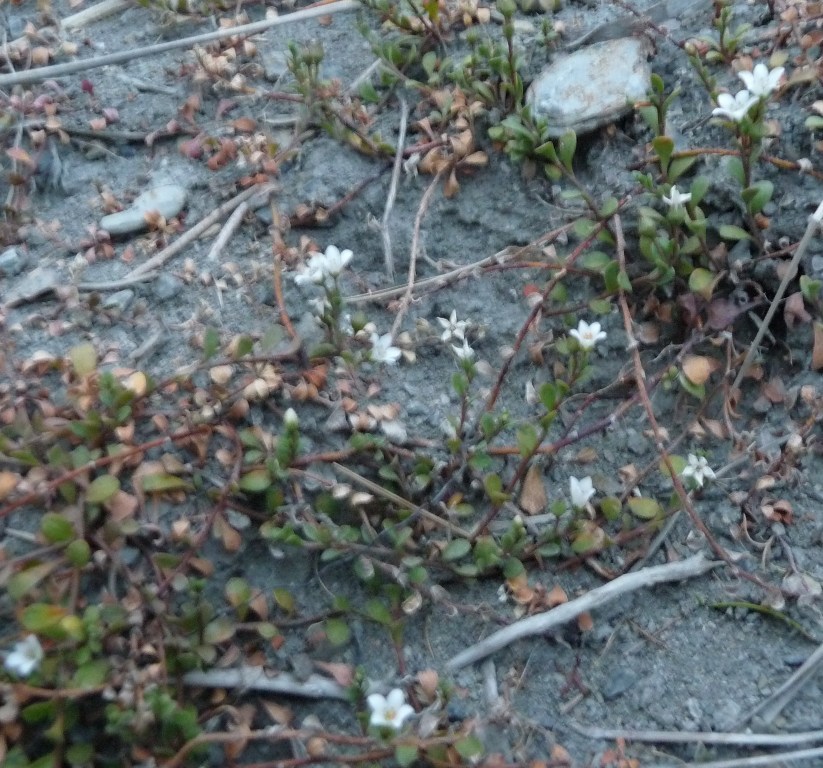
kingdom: Plantae
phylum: Tracheophyta
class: Magnoliopsida
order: Ericales
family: Primulaceae
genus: Samolus
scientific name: Samolus repens
